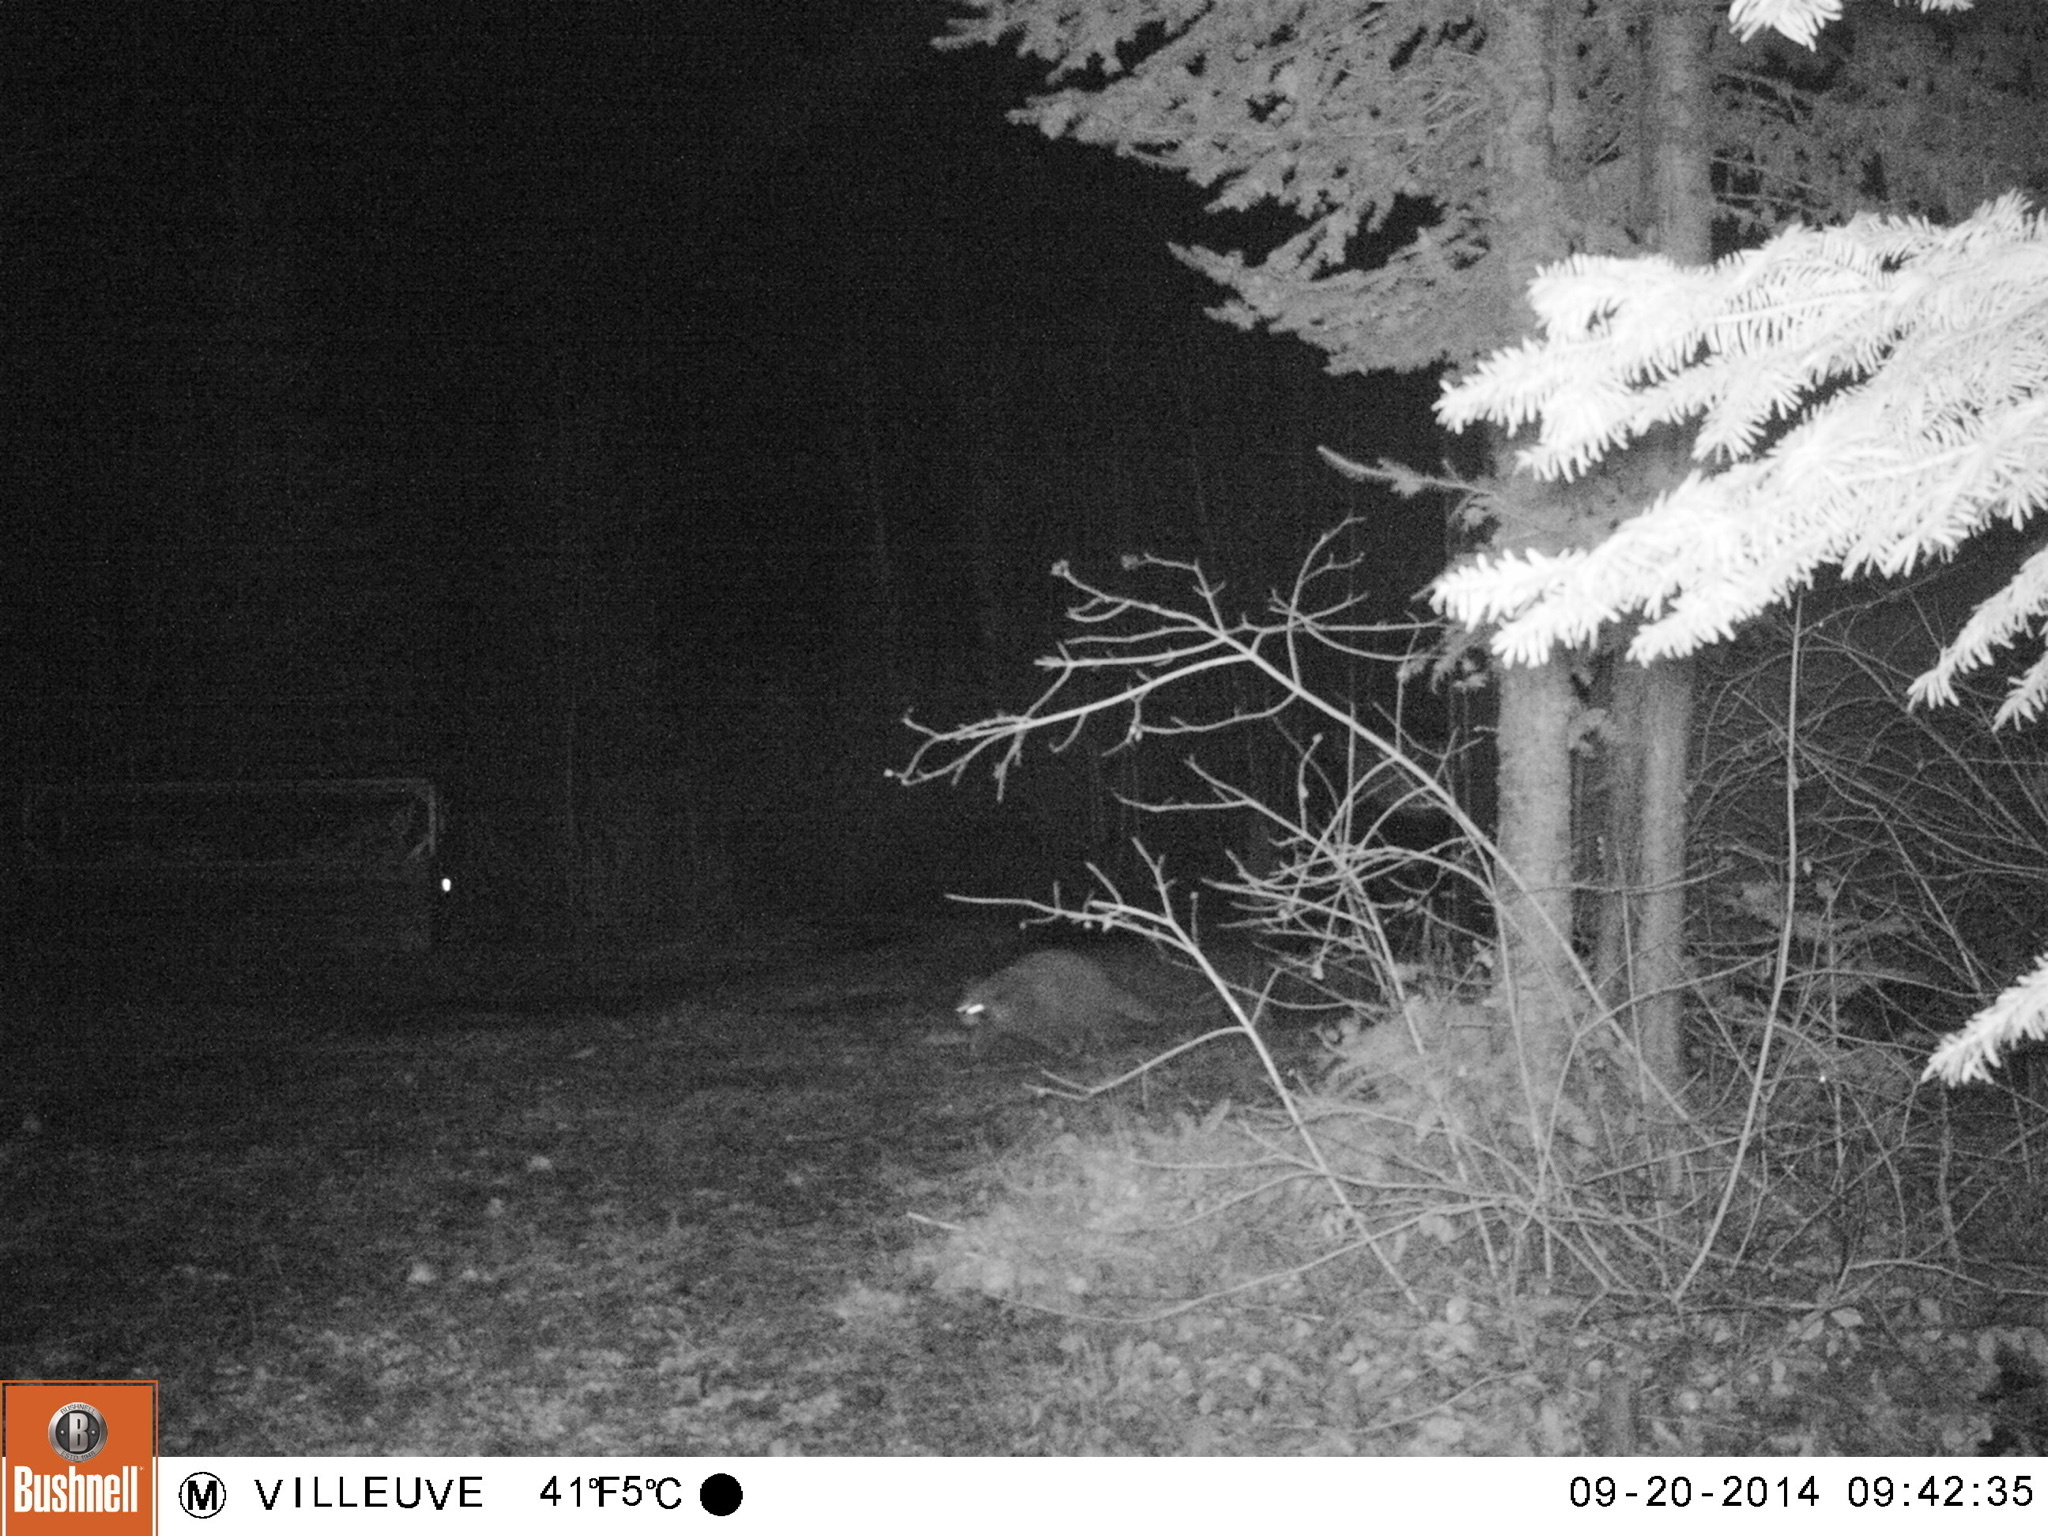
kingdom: Animalia
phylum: Chordata
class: Mammalia
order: Carnivora
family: Procyonidae
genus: Procyon
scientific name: Procyon lotor
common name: Raccoon
